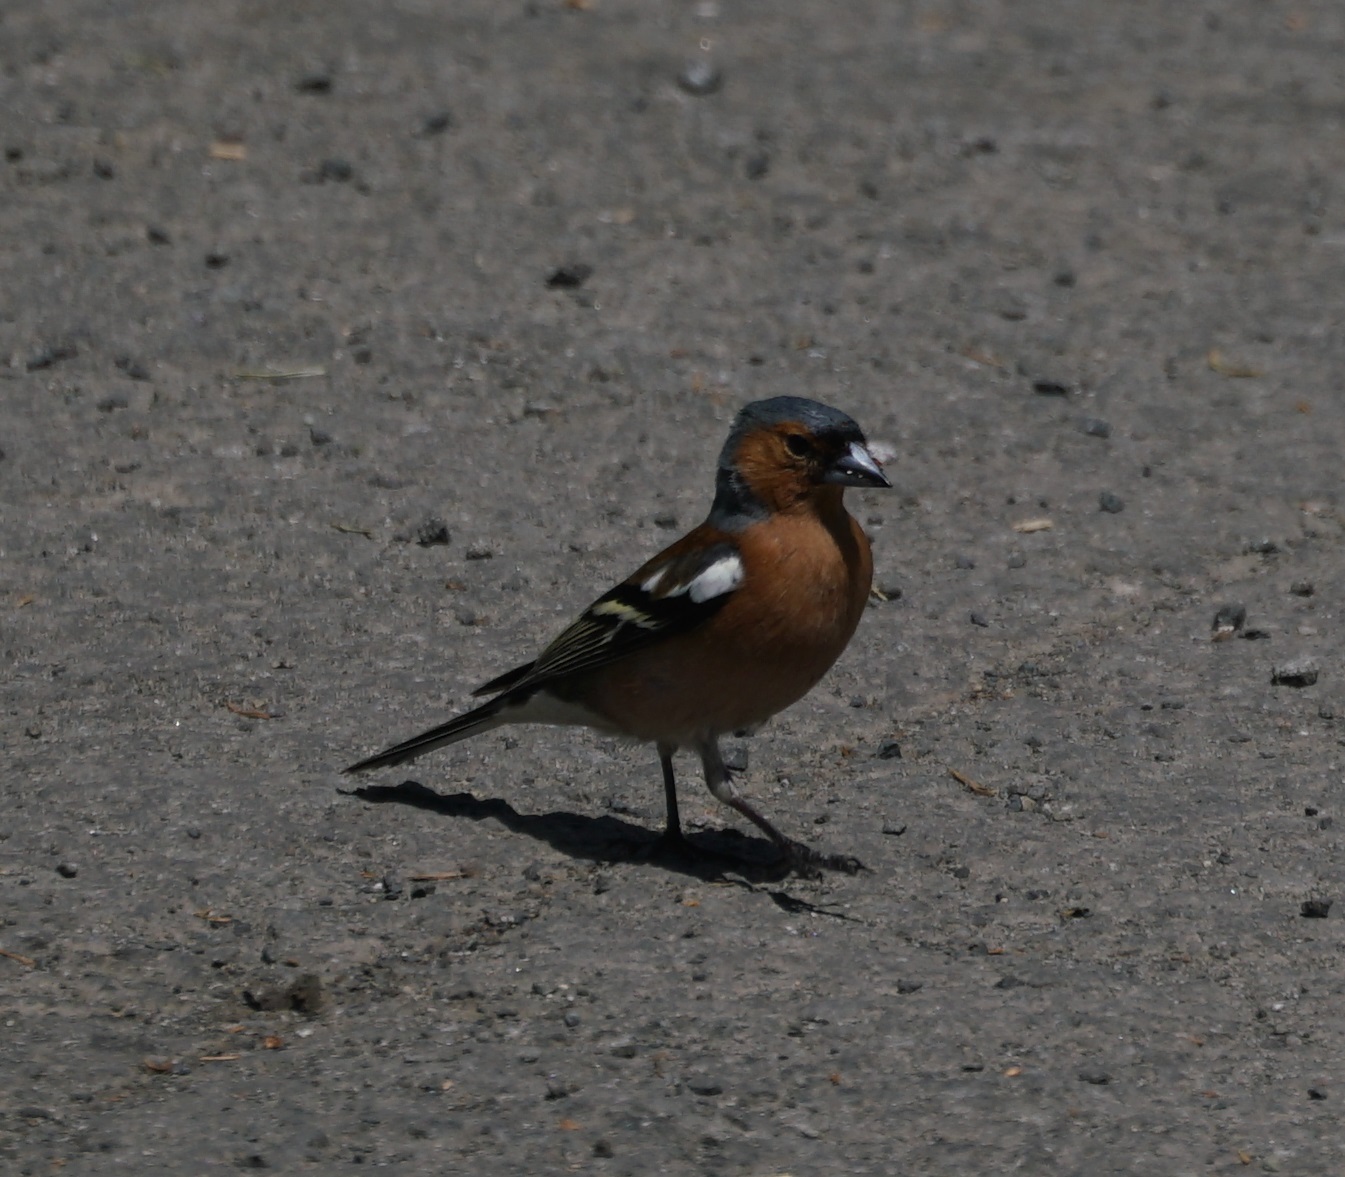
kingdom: Animalia
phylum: Chordata
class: Aves
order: Passeriformes
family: Fringillidae
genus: Fringilla
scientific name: Fringilla coelebs
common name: Common chaffinch
